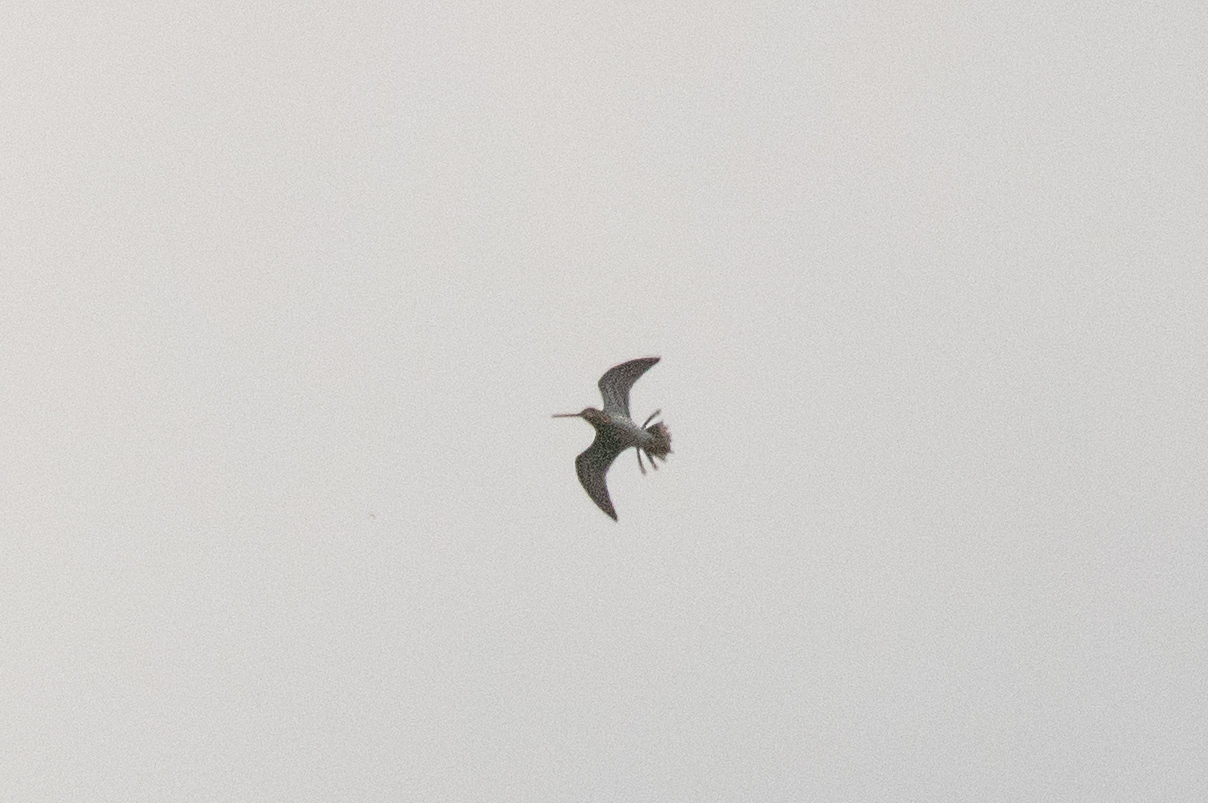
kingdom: Animalia
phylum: Chordata
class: Aves
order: Charadriiformes
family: Scolopacidae
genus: Gallinago
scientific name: Gallinago gallinago
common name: Common snipe
